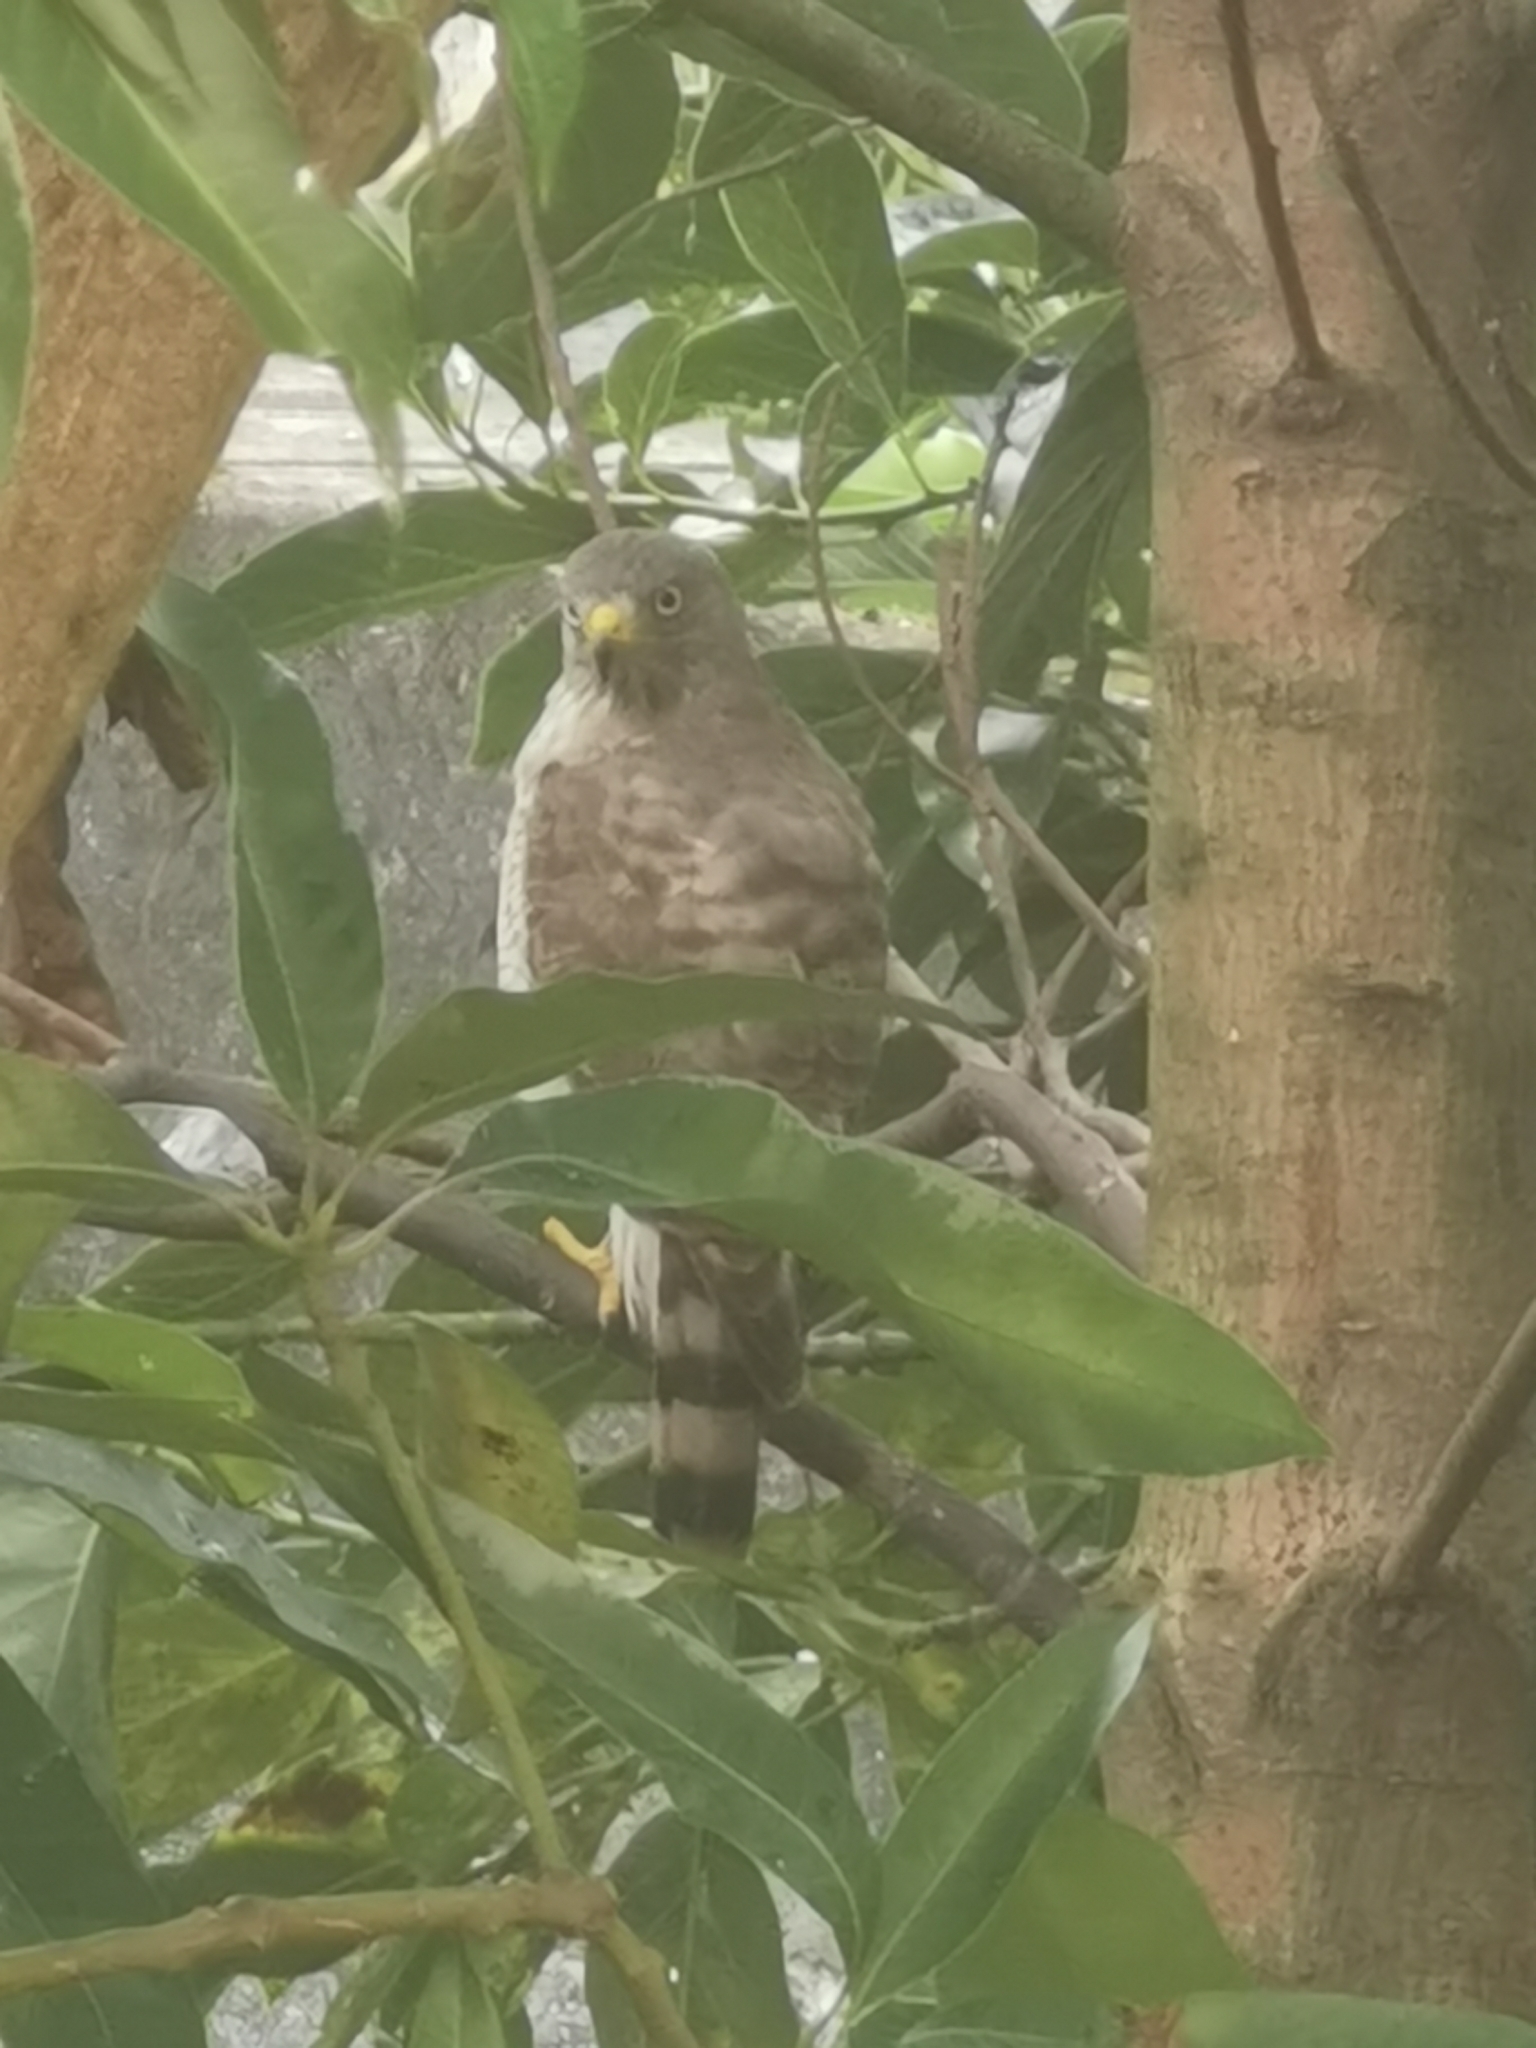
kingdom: Animalia
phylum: Chordata
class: Aves
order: Accipitriformes
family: Accipitridae
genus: Rupornis
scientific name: Rupornis magnirostris
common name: Roadside hawk
